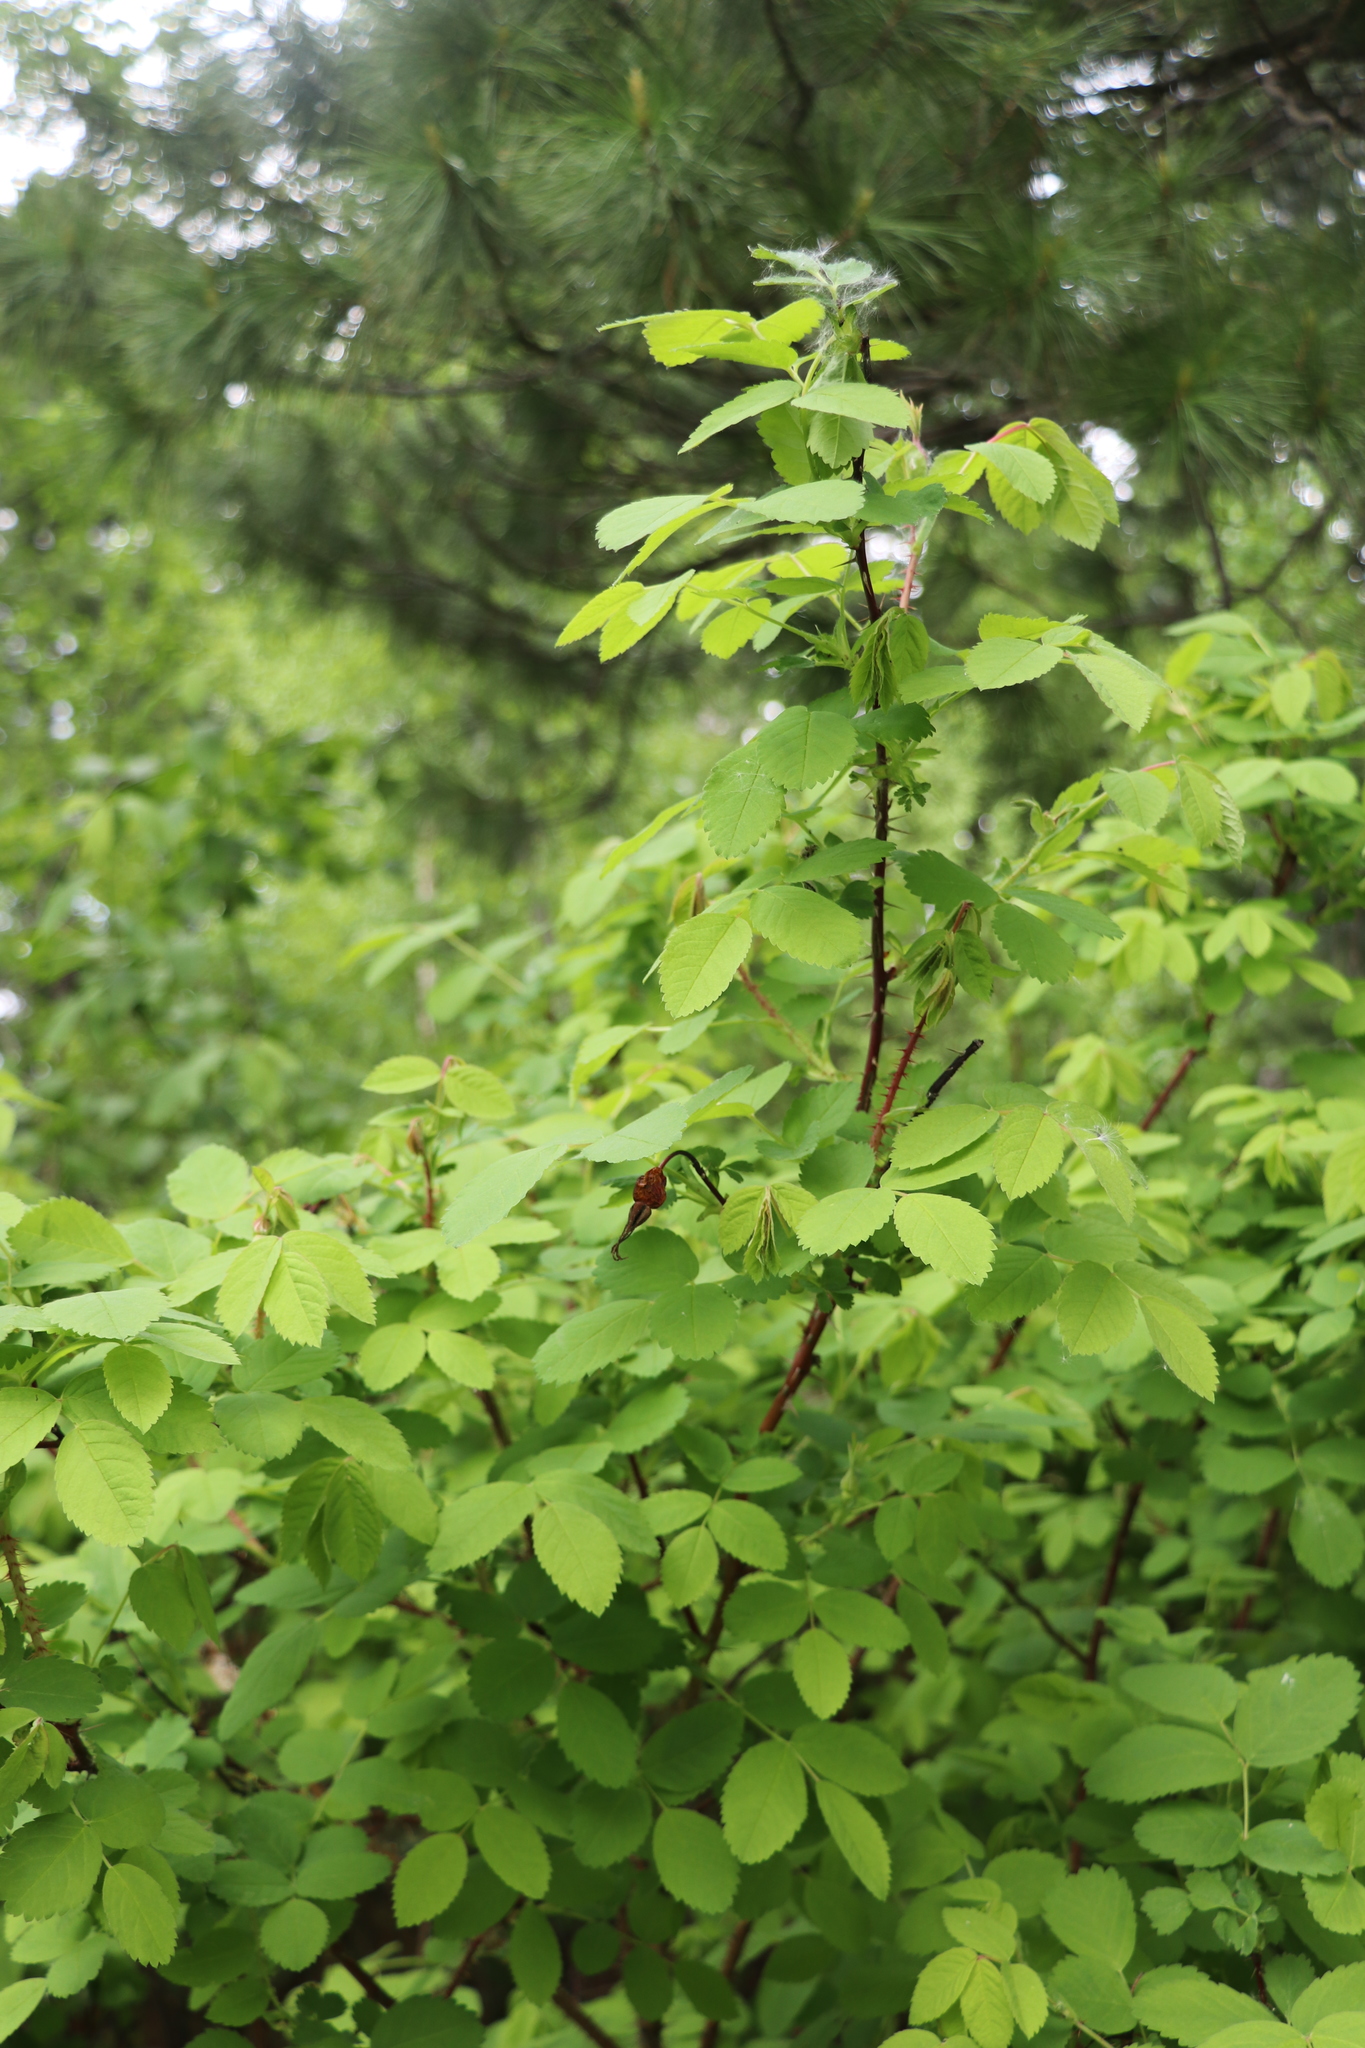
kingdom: Plantae
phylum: Tracheophyta
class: Magnoliopsida
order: Rosales
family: Rosaceae
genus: Rosa
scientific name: Rosa majalis
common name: Cinnamon rose
